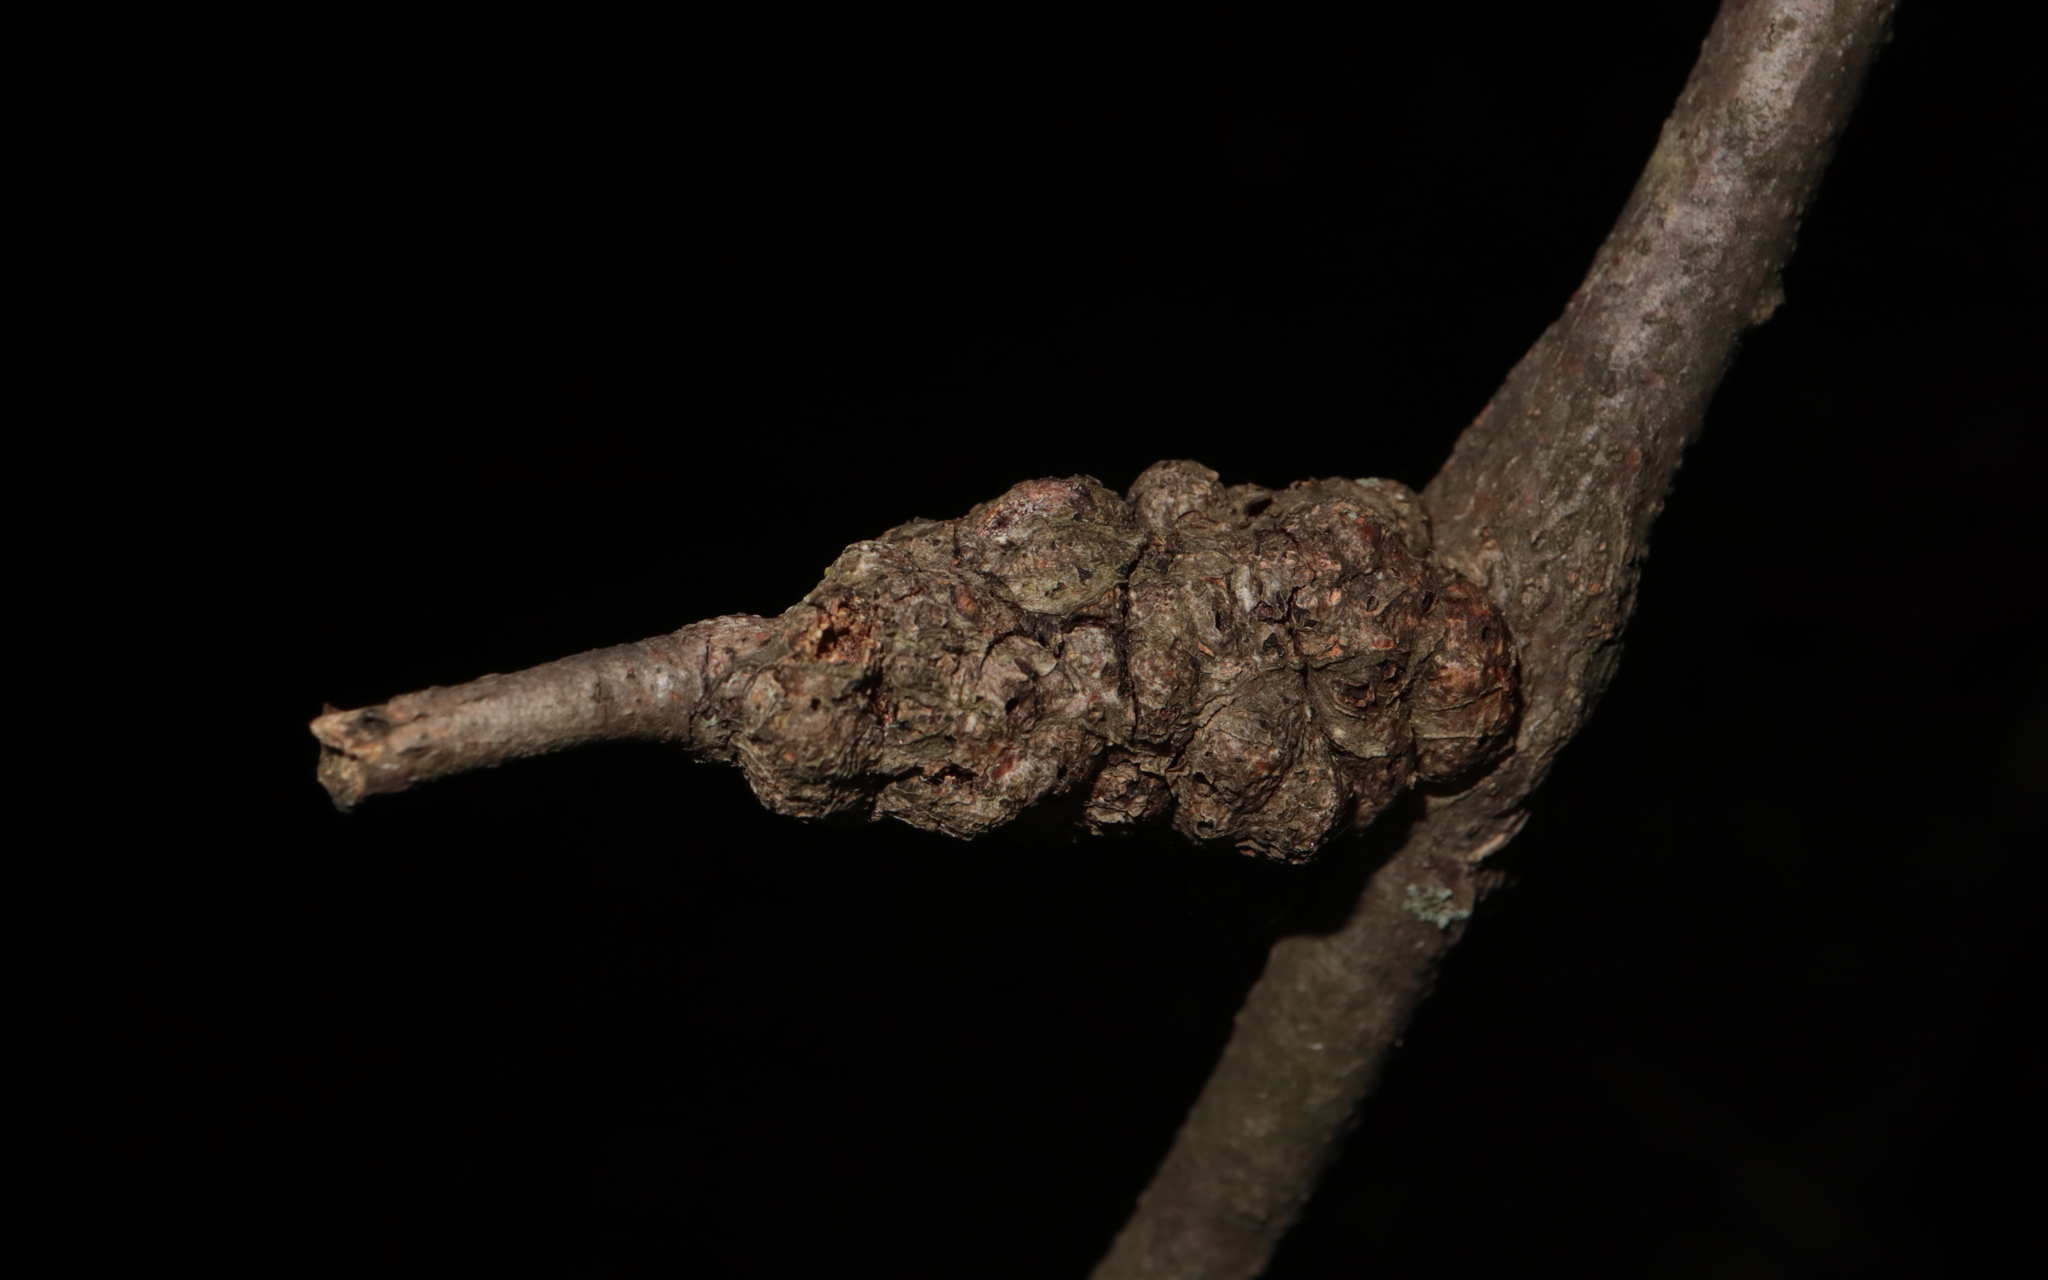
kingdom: Animalia
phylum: Arthropoda
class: Insecta
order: Hymenoptera
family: Cynipidae
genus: Callirhytis
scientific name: Callirhytis
